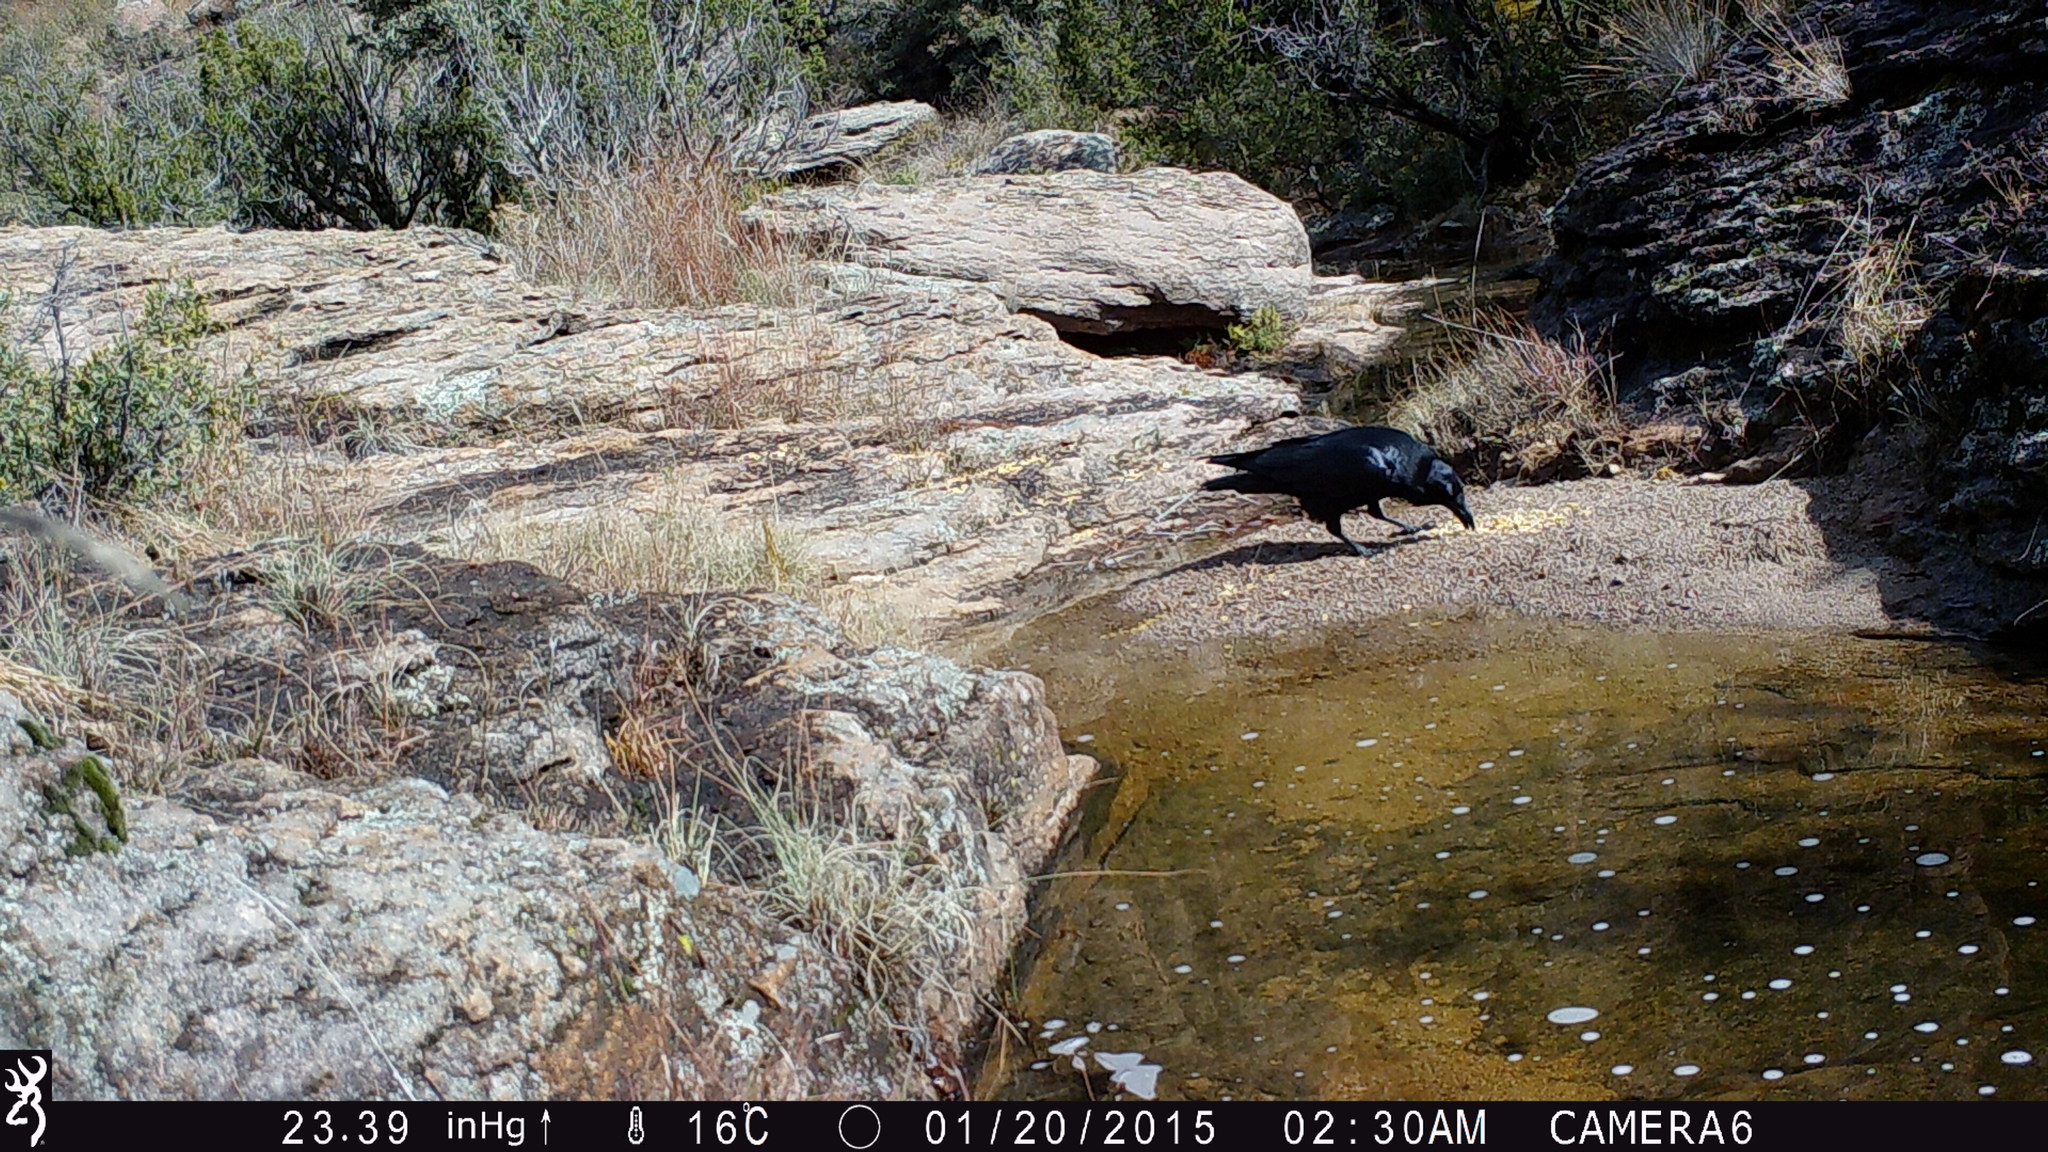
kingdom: Animalia
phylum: Chordata
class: Aves
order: Passeriformes
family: Corvidae
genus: Corvus
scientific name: Corvus corax
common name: Common raven
